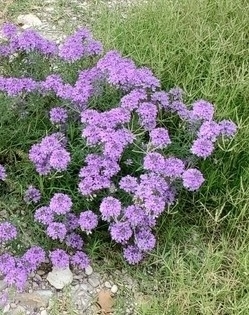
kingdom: Plantae
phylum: Tracheophyta
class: Magnoliopsida
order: Lamiales
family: Verbenaceae
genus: Verbena
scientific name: Verbena bipinnatifida
